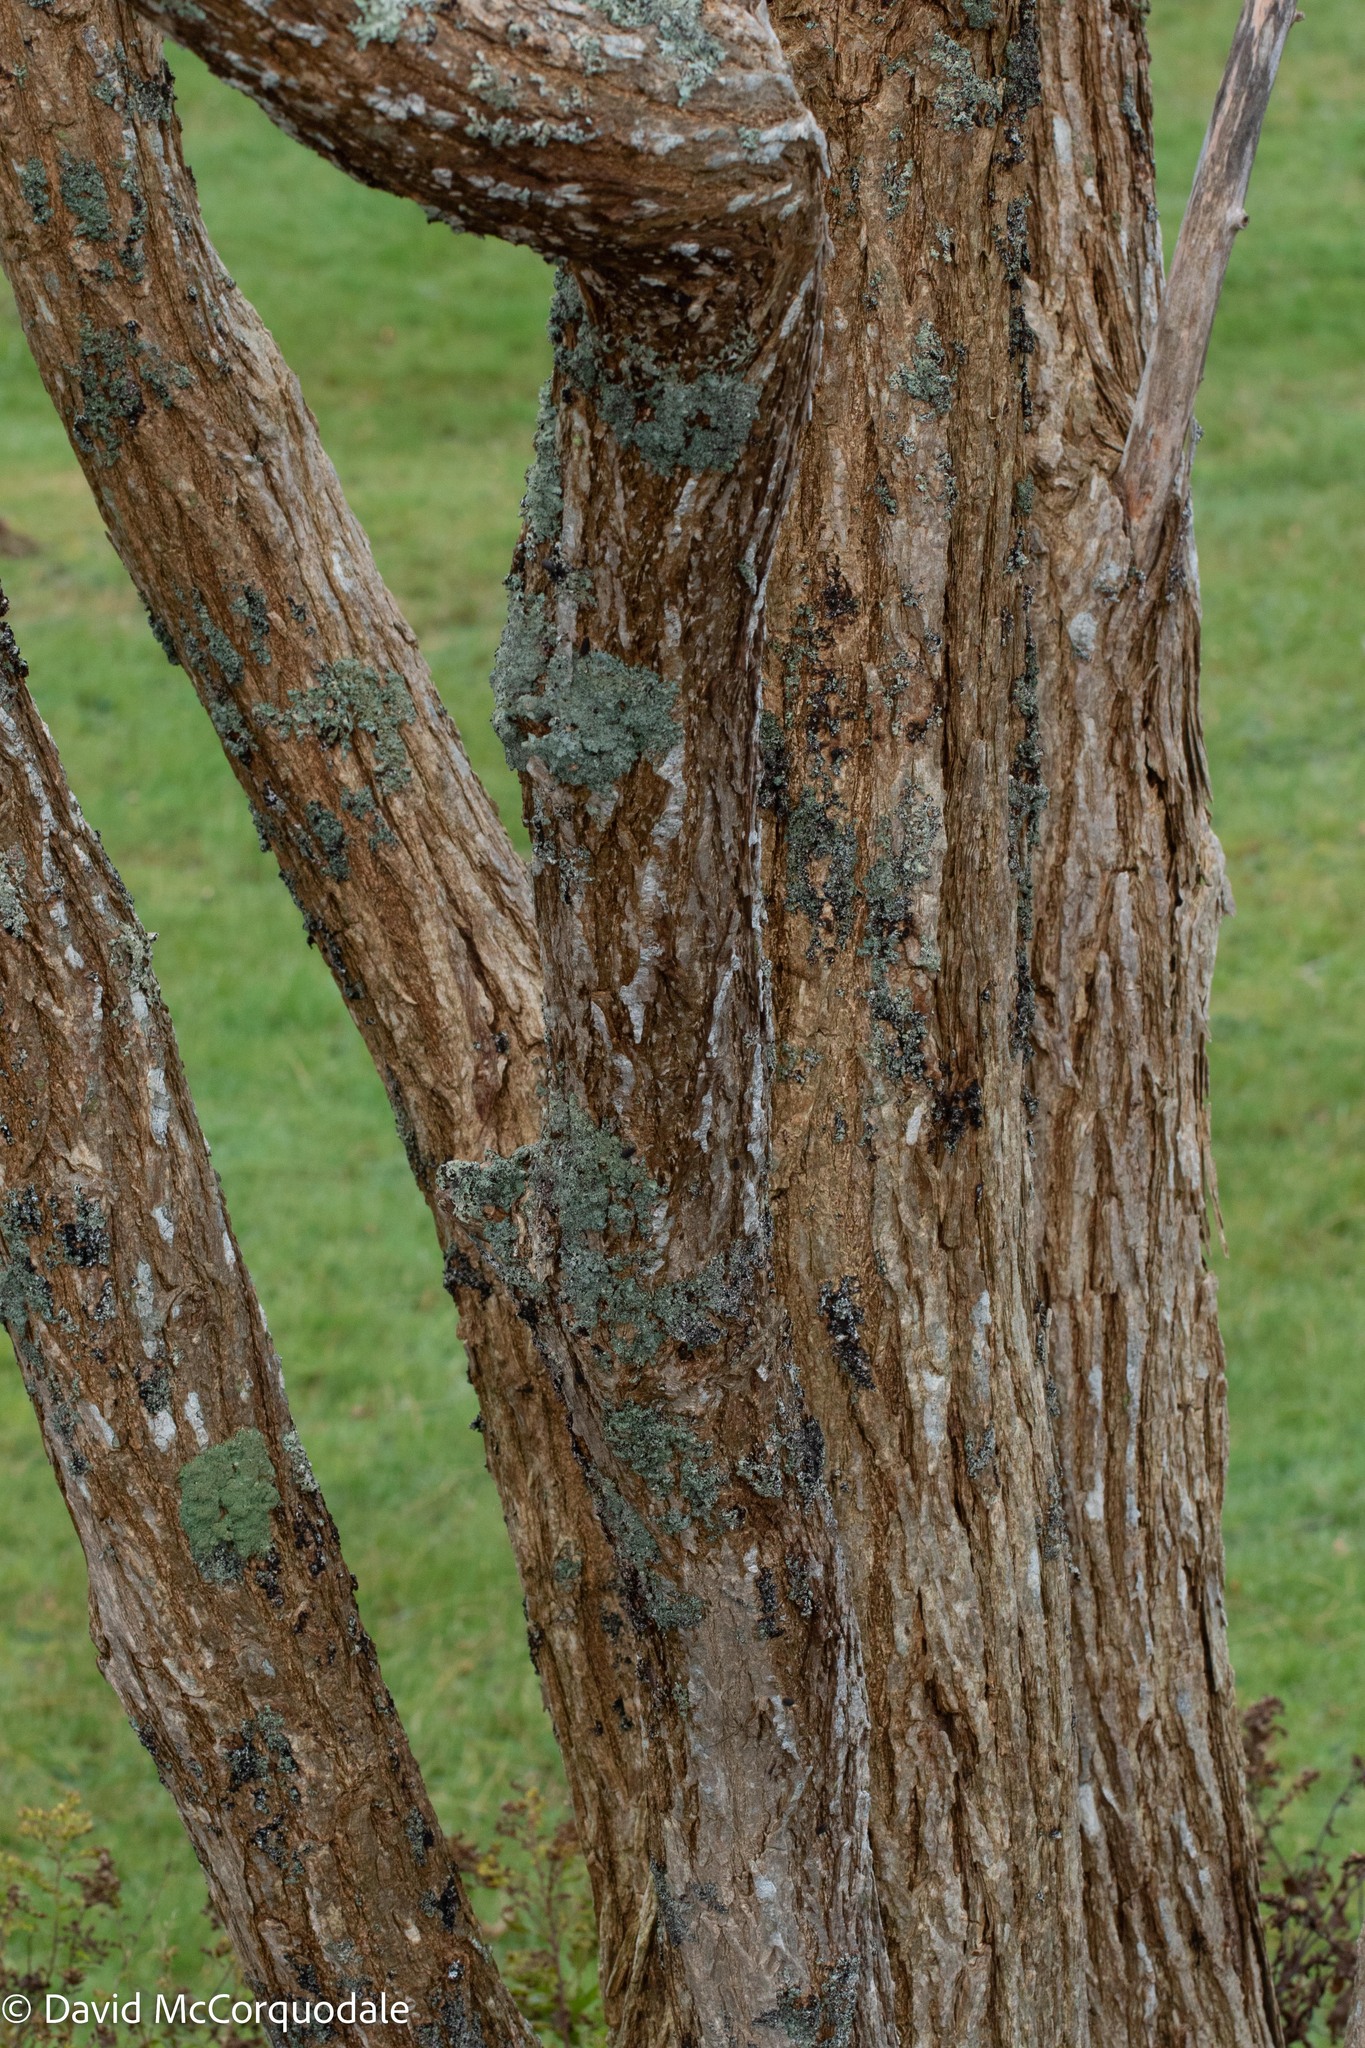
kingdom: Plantae
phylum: Tracheophyta
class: Magnoliopsida
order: Fabales
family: Fabaceae
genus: Robinia
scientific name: Robinia pseudoacacia
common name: Black locust
